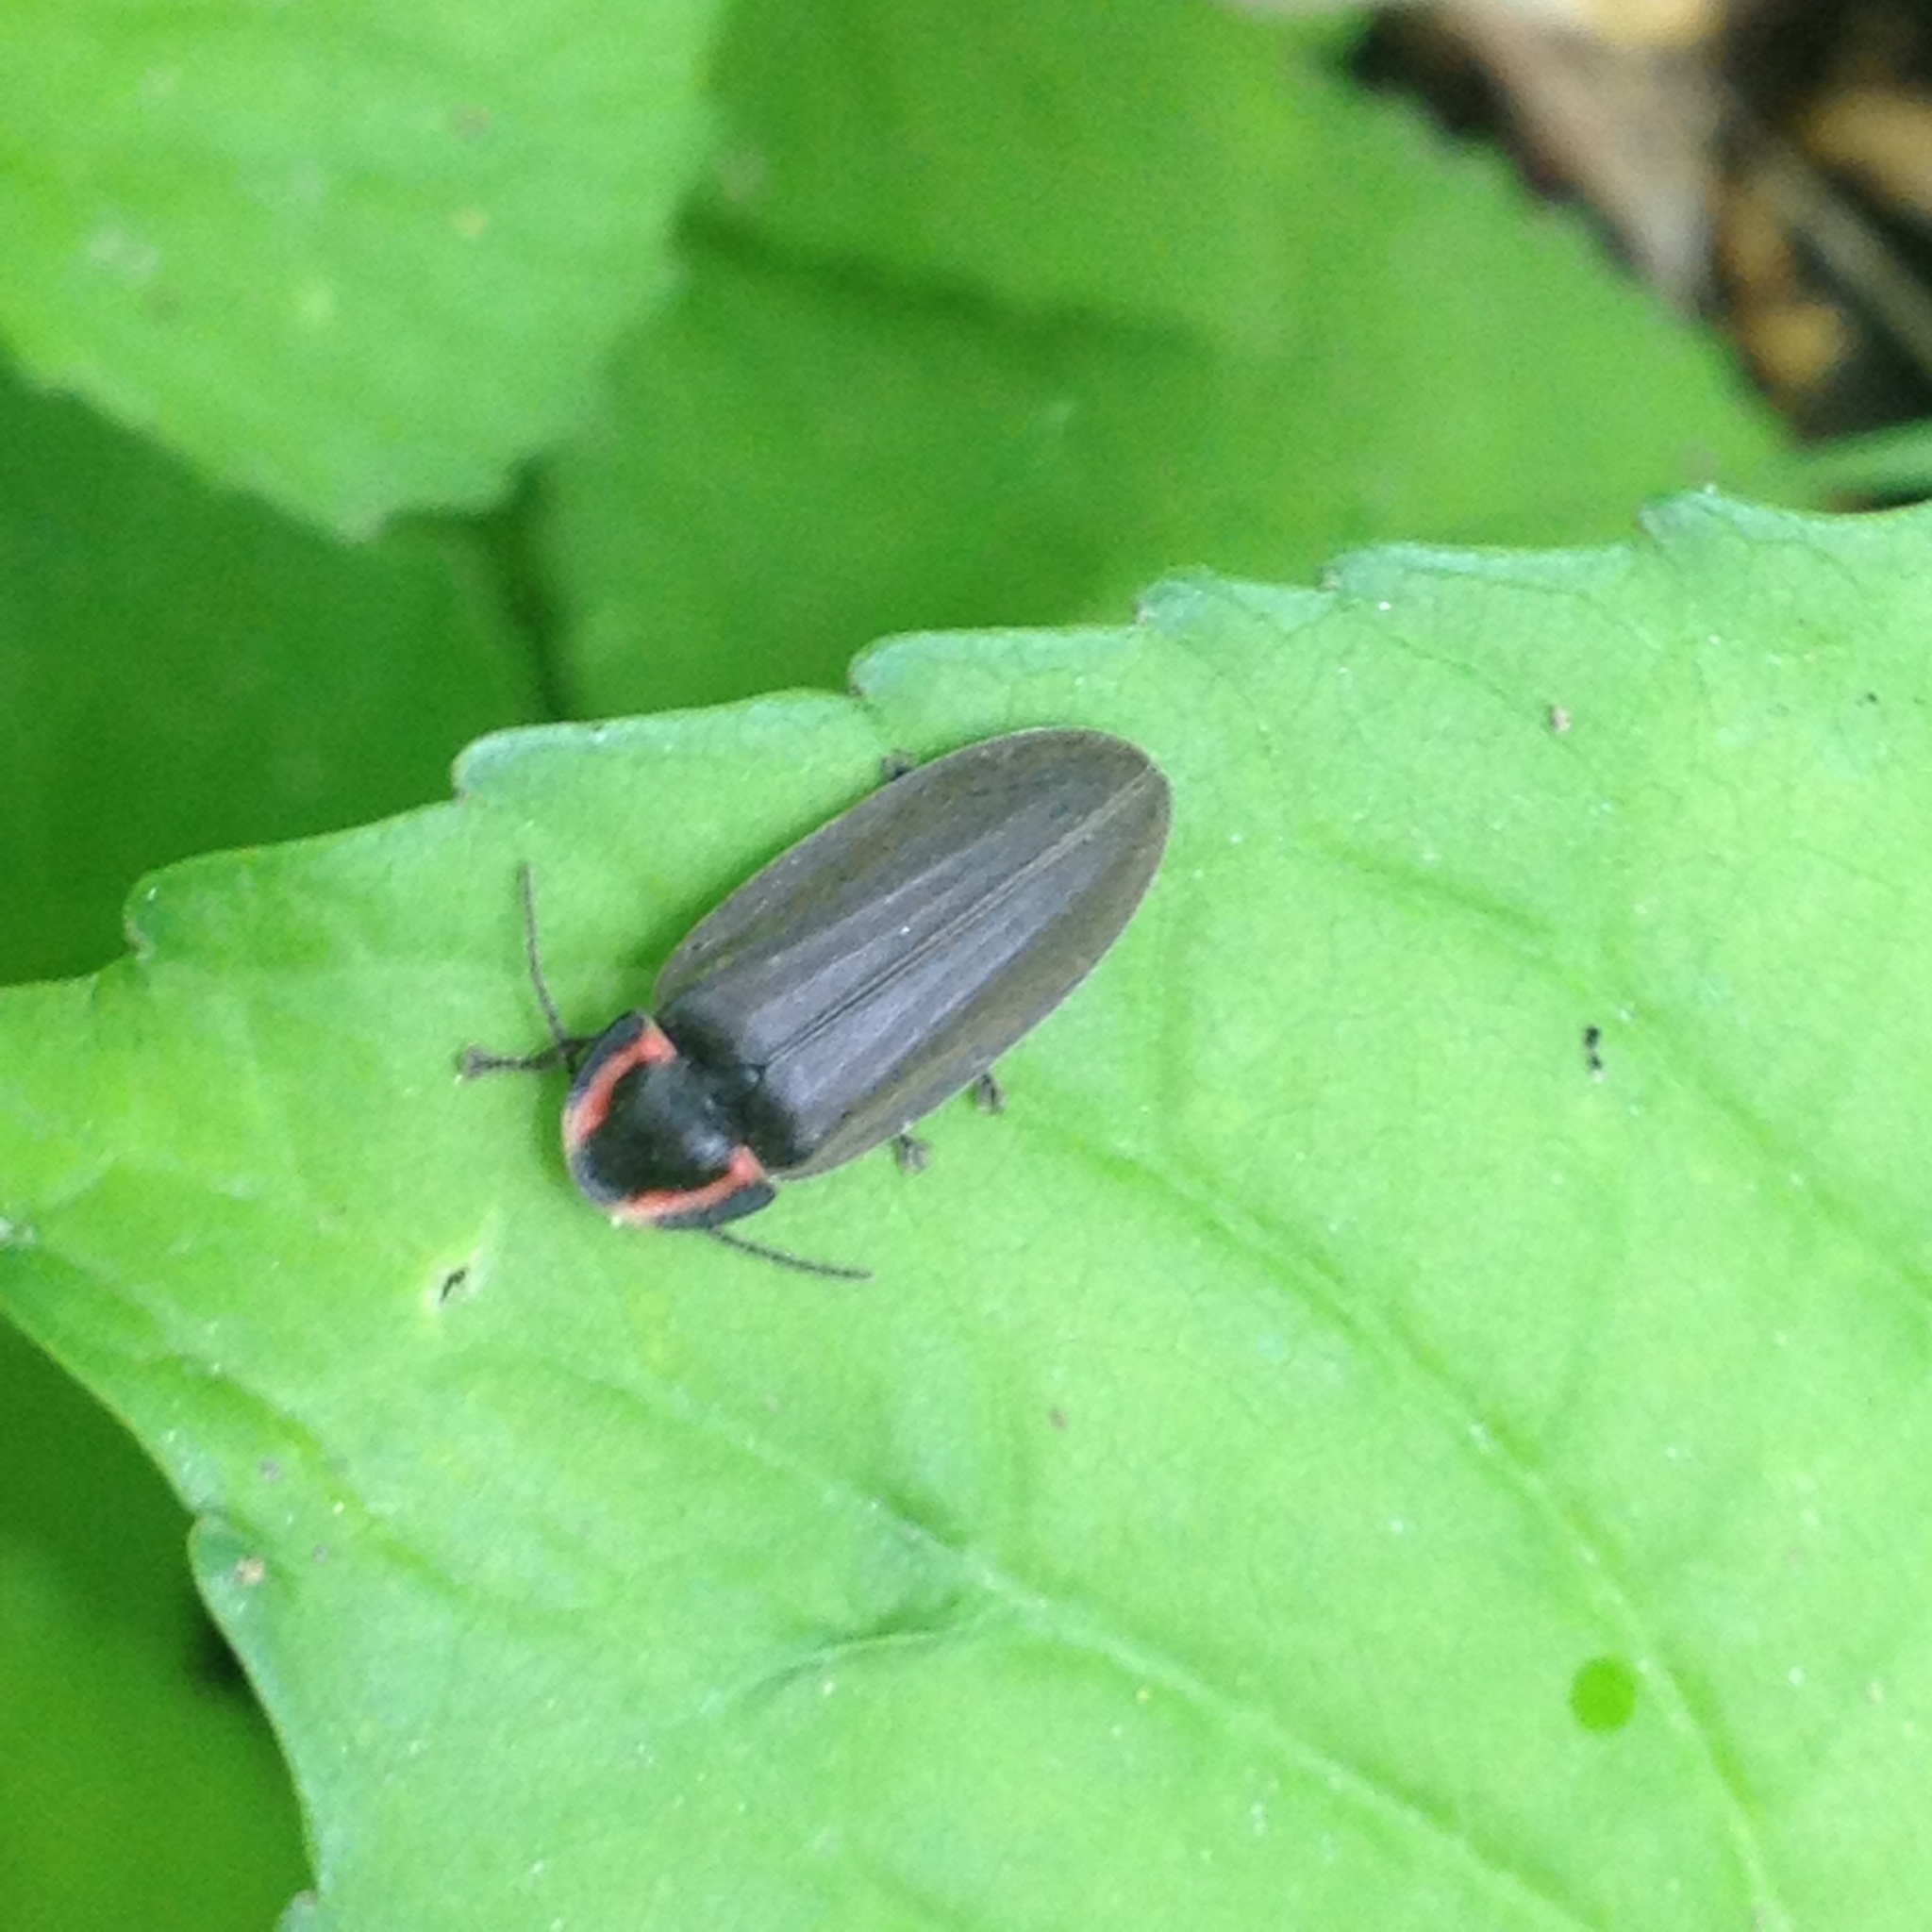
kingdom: Animalia
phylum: Arthropoda
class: Insecta
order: Coleoptera
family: Lampyridae
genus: Photinus
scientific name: Photinus corrusca
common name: Winter firefly
